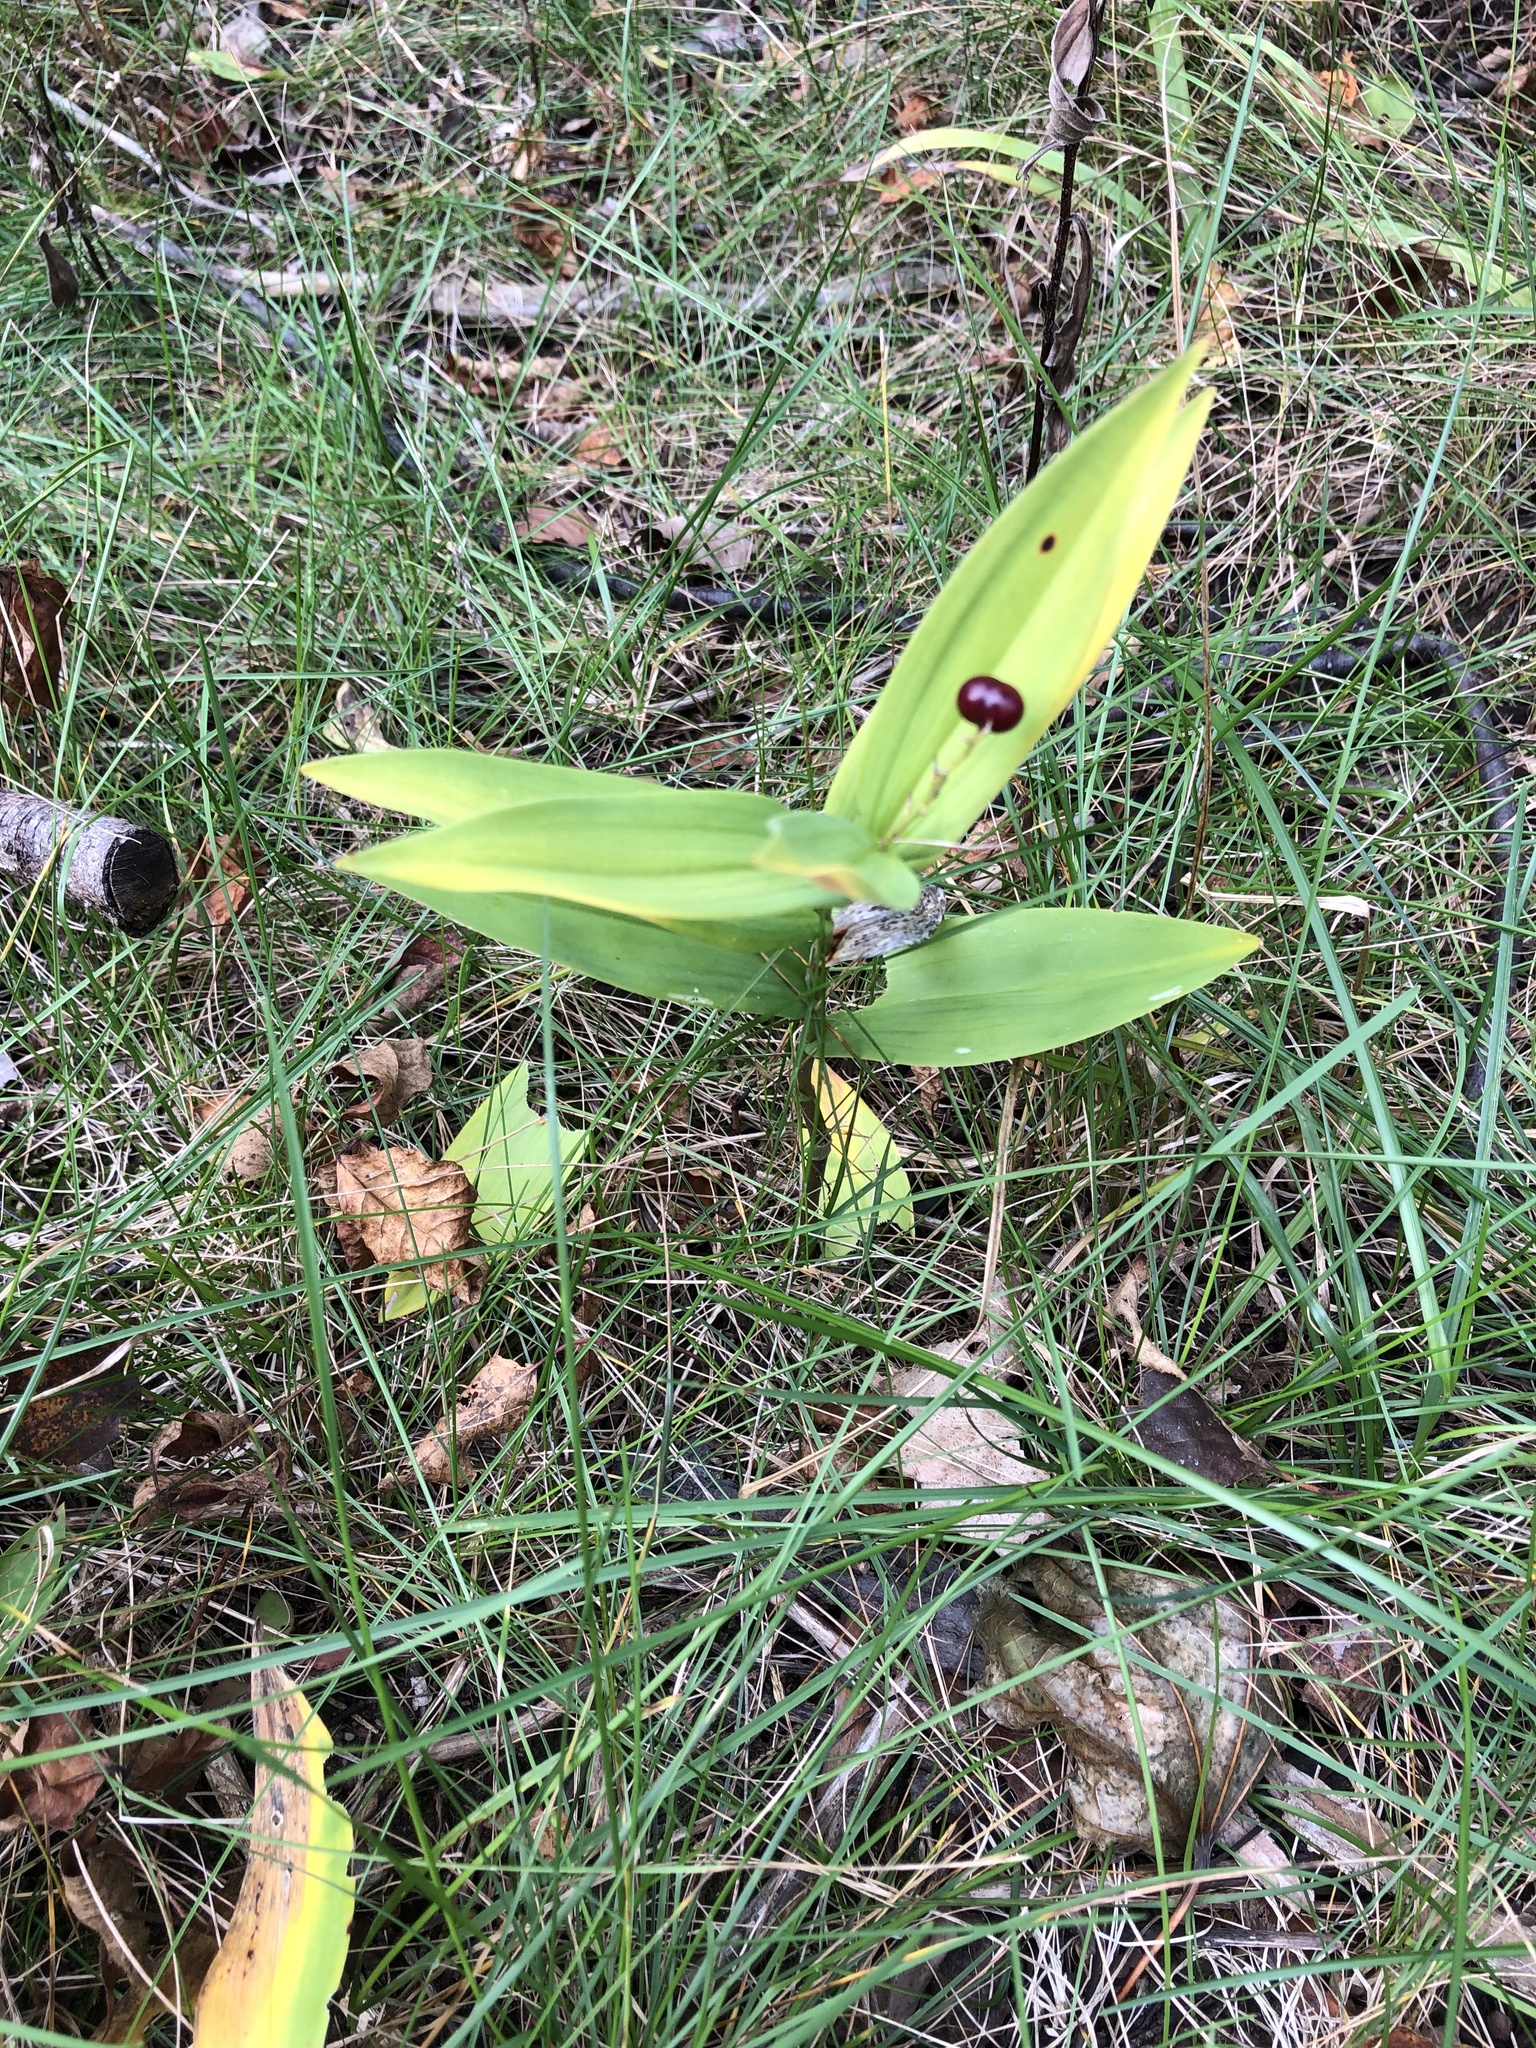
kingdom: Plantae
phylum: Tracheophyta
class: Liliopsida
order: Asparagales
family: Asparagaceae
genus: Maianthemum
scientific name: Maianthemum stellatum
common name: Little false solomon's seal
